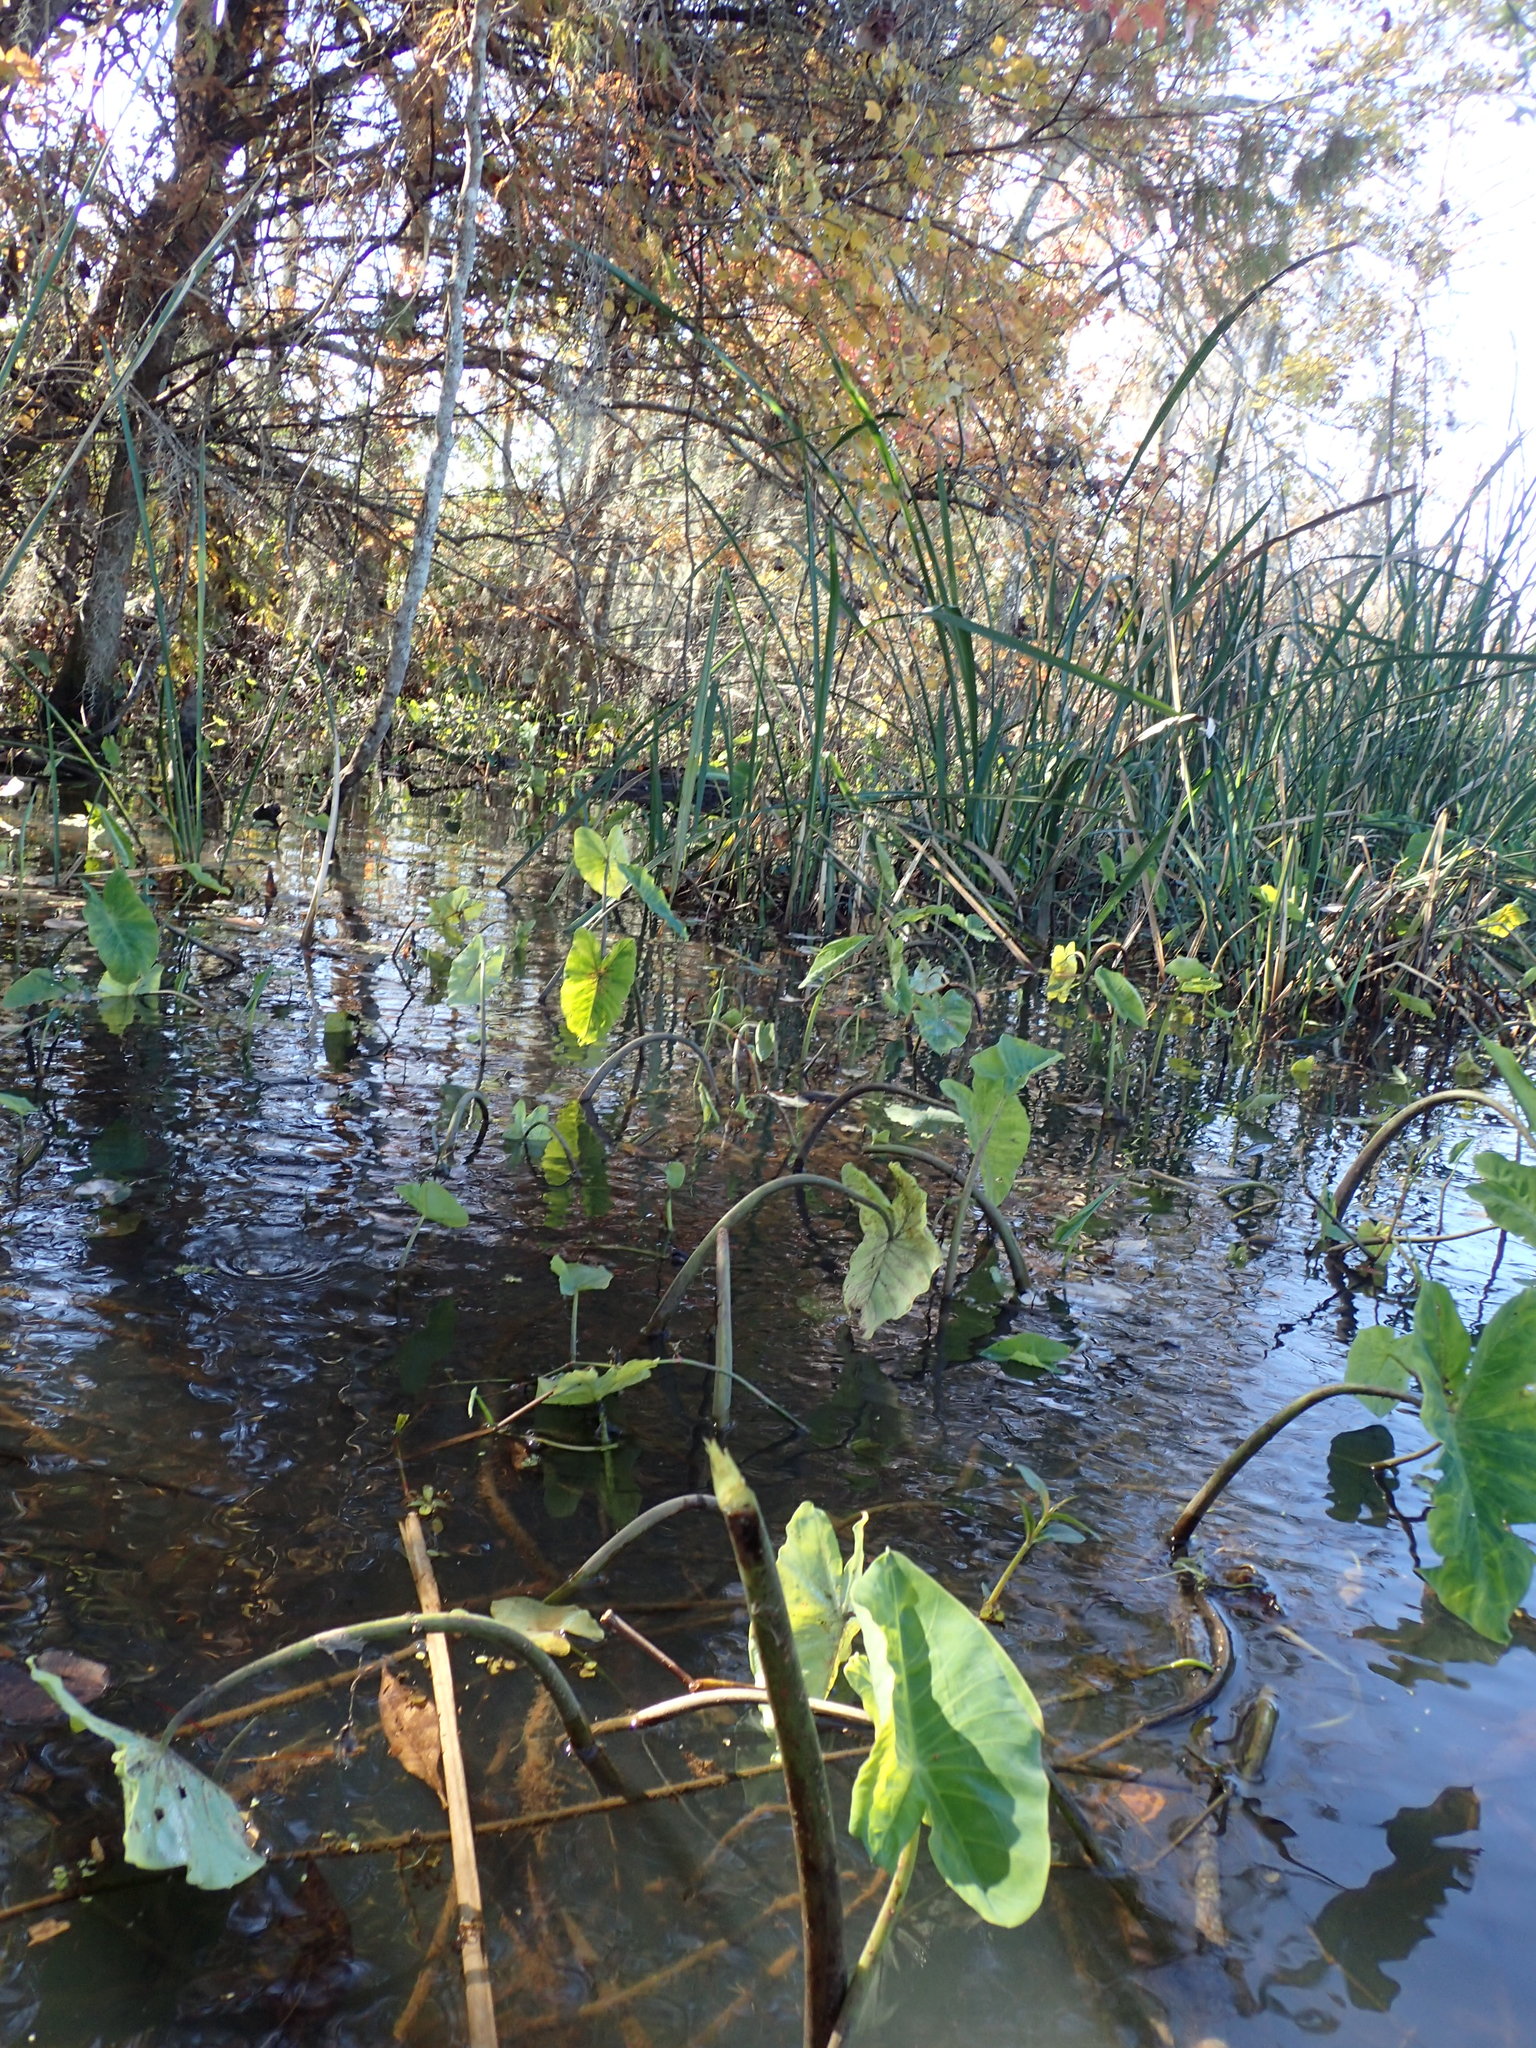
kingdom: Animalia
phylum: Arthropoda
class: Insecta
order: Hemiptera
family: Delphacidae
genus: Tarophagus
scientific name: Tarophagus colocasiae
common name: Taro planthopper
